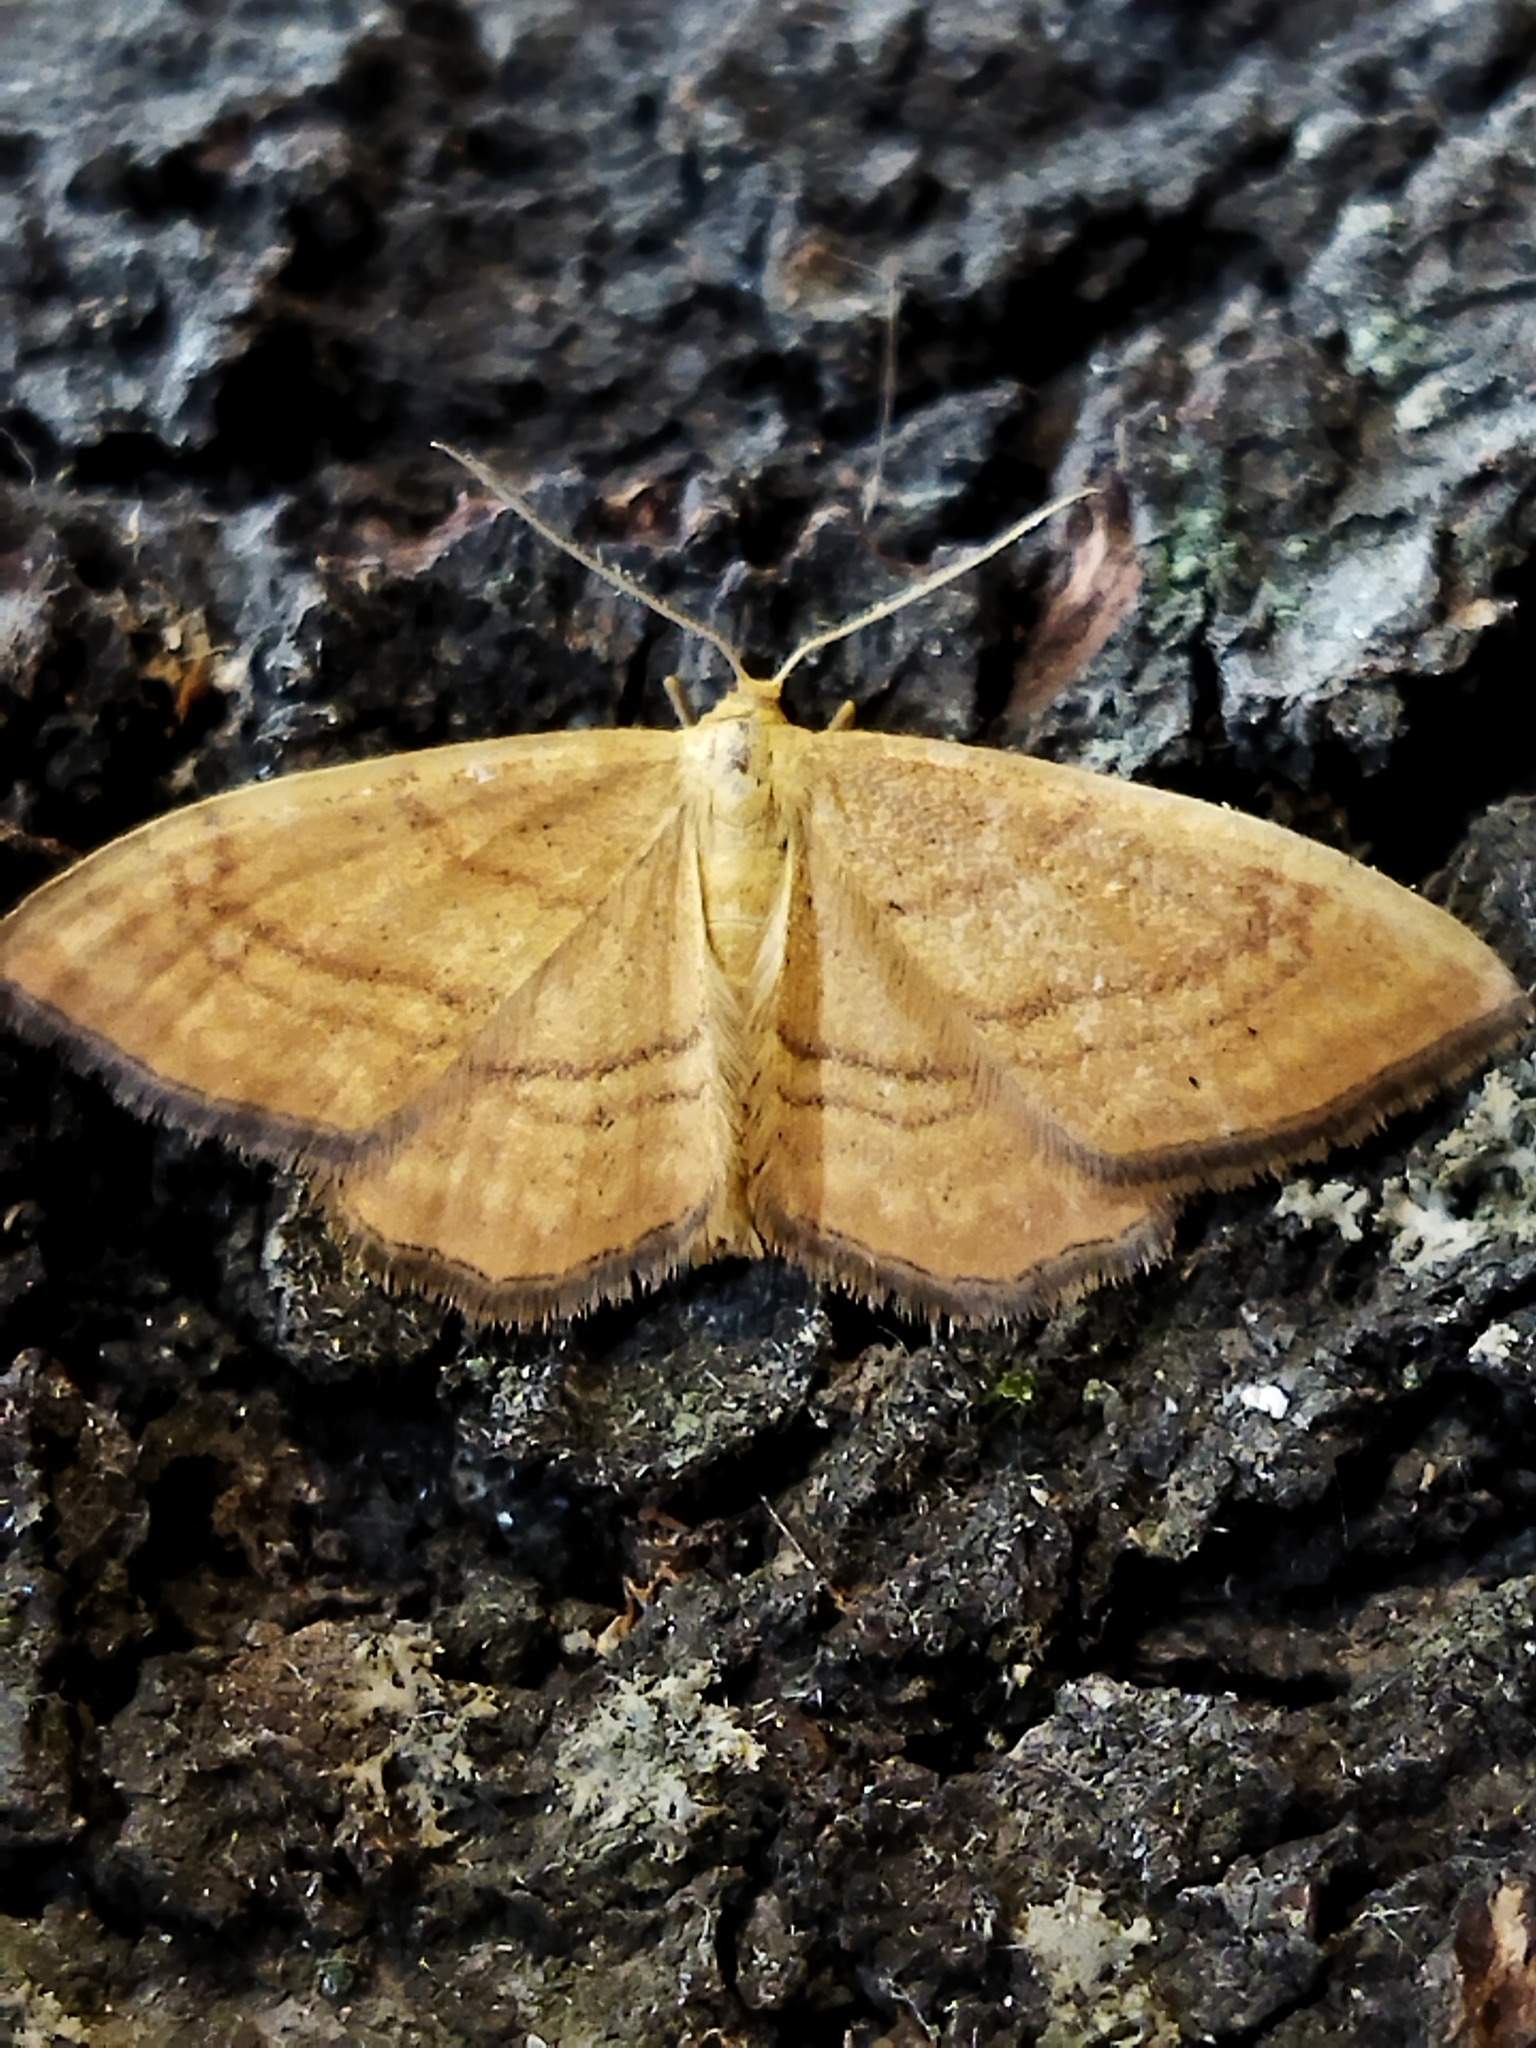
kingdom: Animalia
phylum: Arthropoda
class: Insecta
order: Lepidoptera
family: Geometridae
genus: Idaea
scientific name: Idaea ochrata
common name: Bright wave
